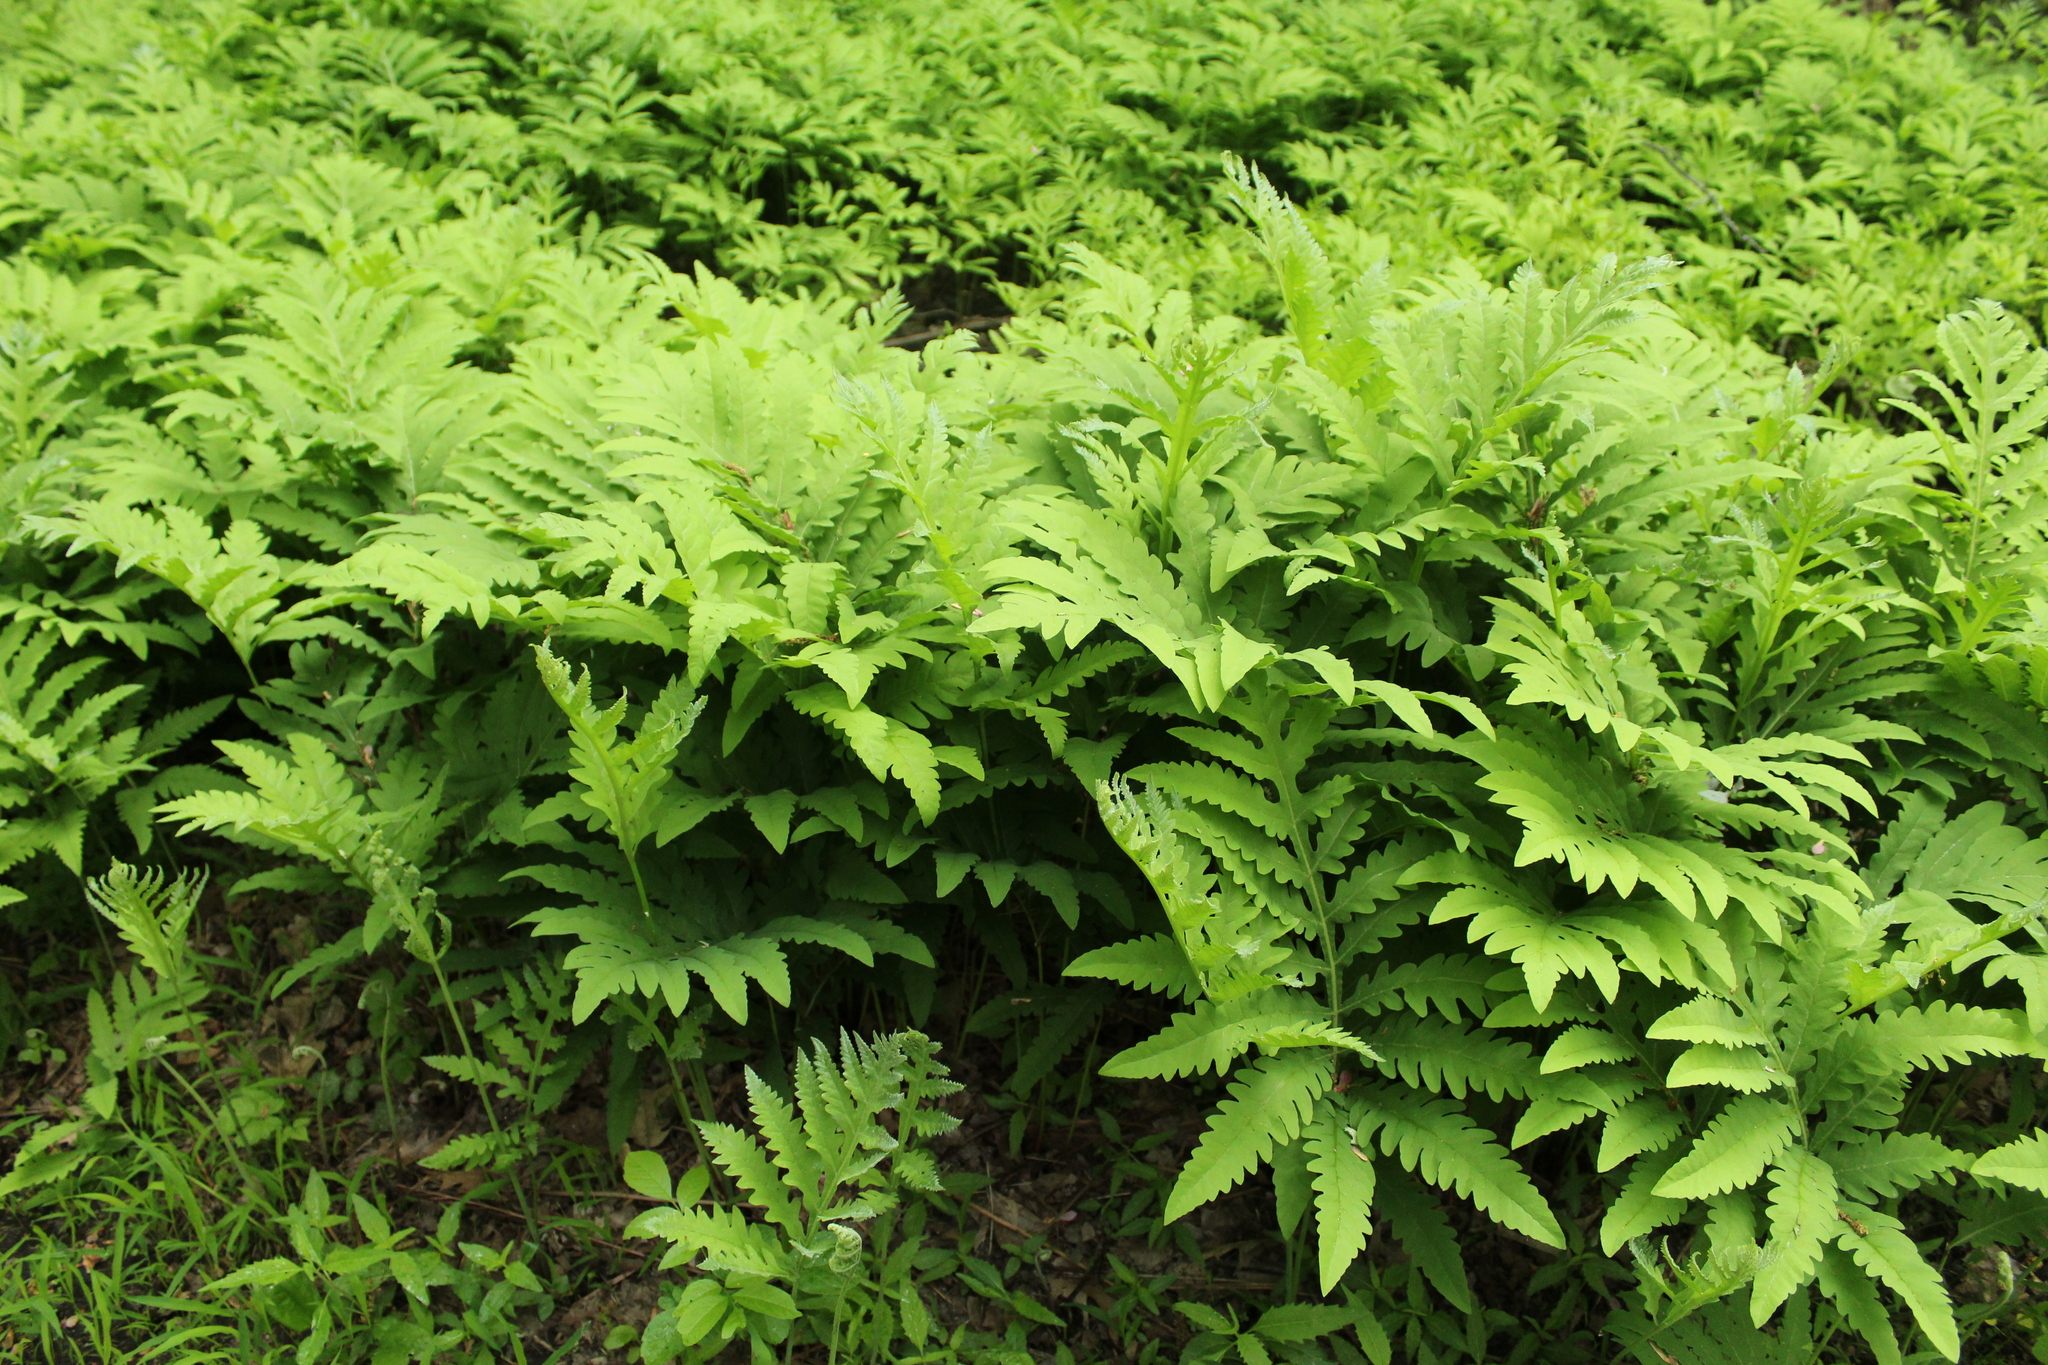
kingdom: Plantae
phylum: Tracheophyta
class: Polypodiopsida
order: Polypodiales
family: Onocleaceae
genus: Onoclea
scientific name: Onoclea sensibilis
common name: Sensitive fern
